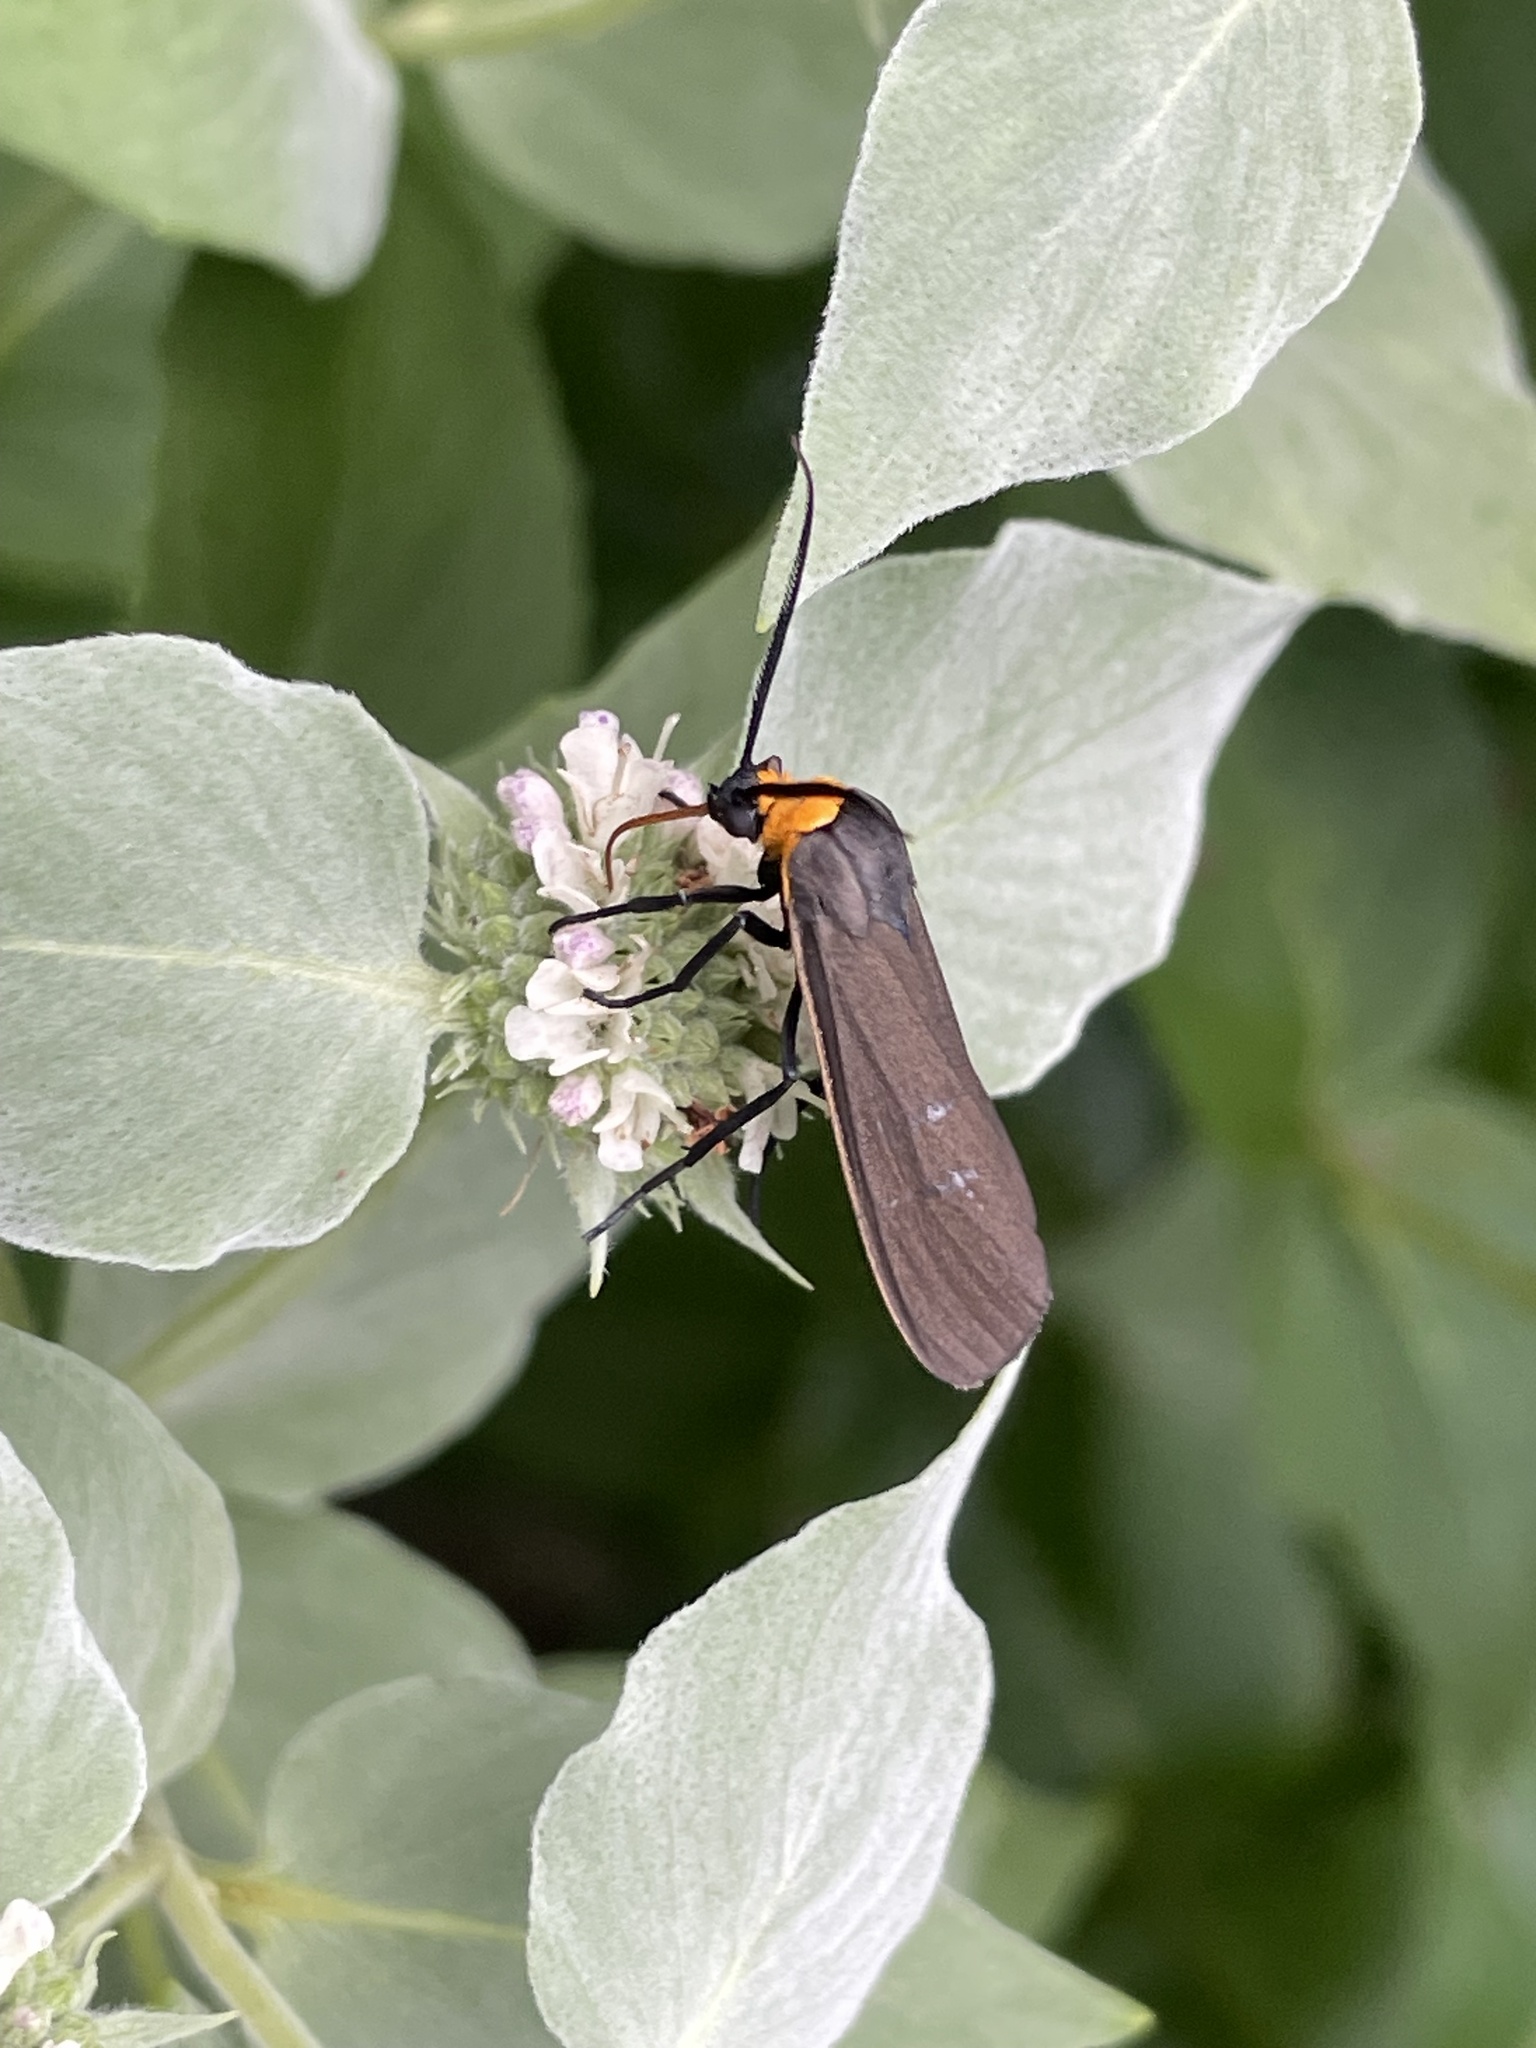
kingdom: Animalia
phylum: Arthropoda
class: Insecta
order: Lepidoptera
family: Erebidae
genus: Cisseps
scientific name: Cisseps fulvicollis
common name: Yellow-collared scape moth
